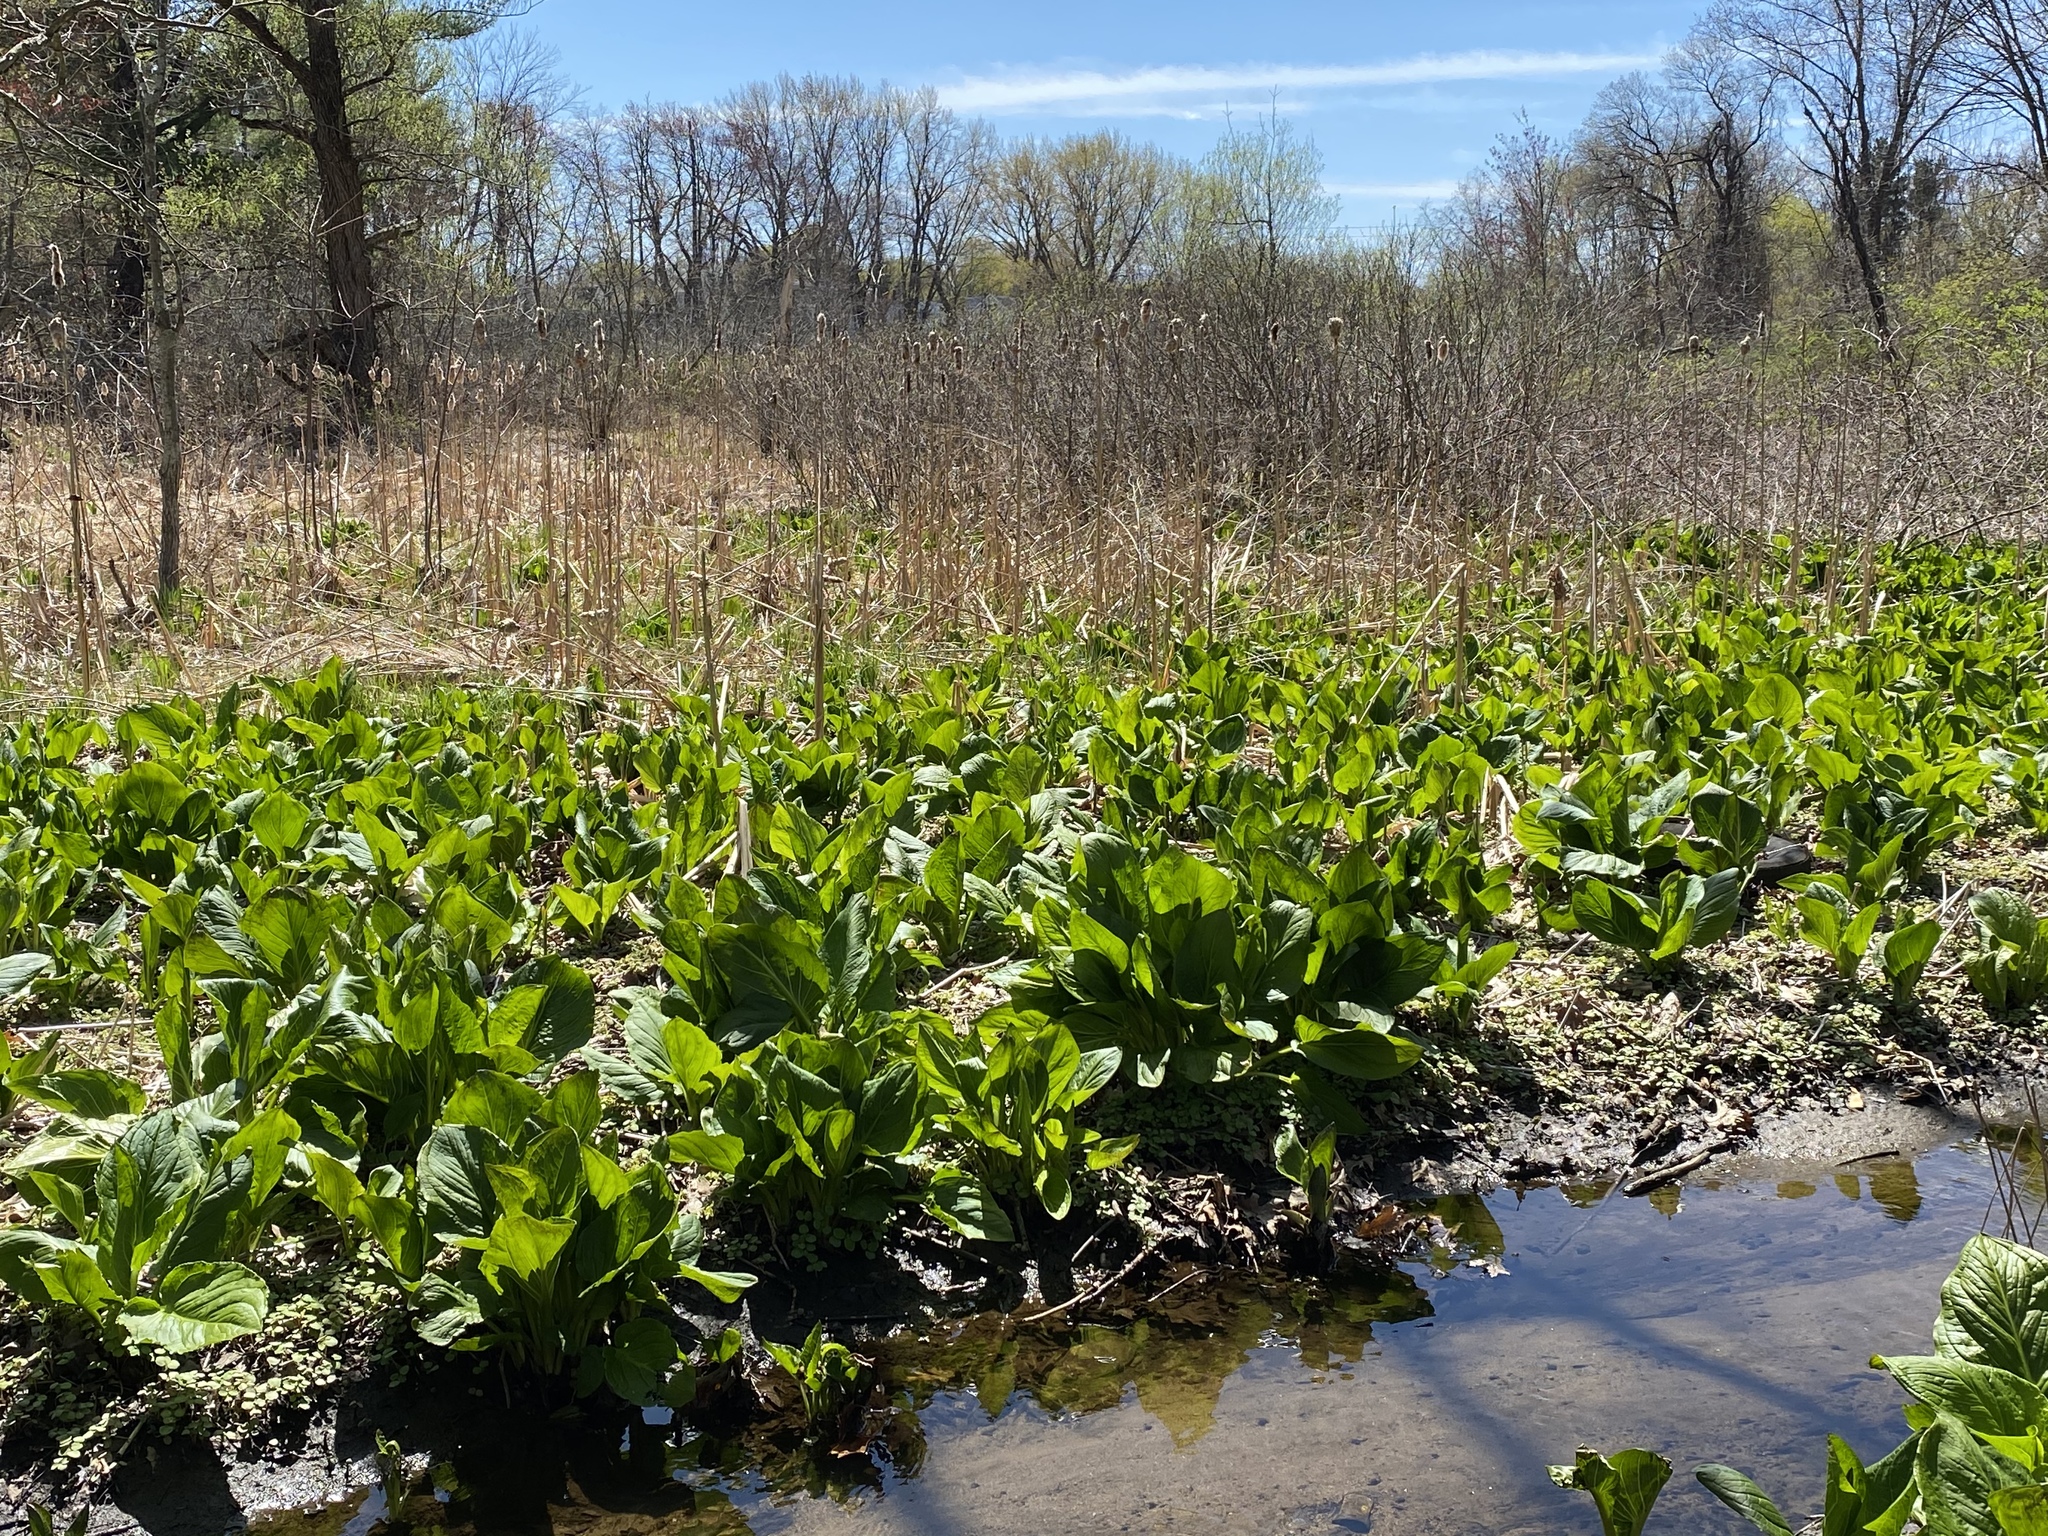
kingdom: Plantae
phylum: Tracheophyta
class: Liliopsida
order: Alismatales
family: Araceae
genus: Symplocarpus
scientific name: Symplocarpus foetidus
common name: Eastern skunk cabbage
